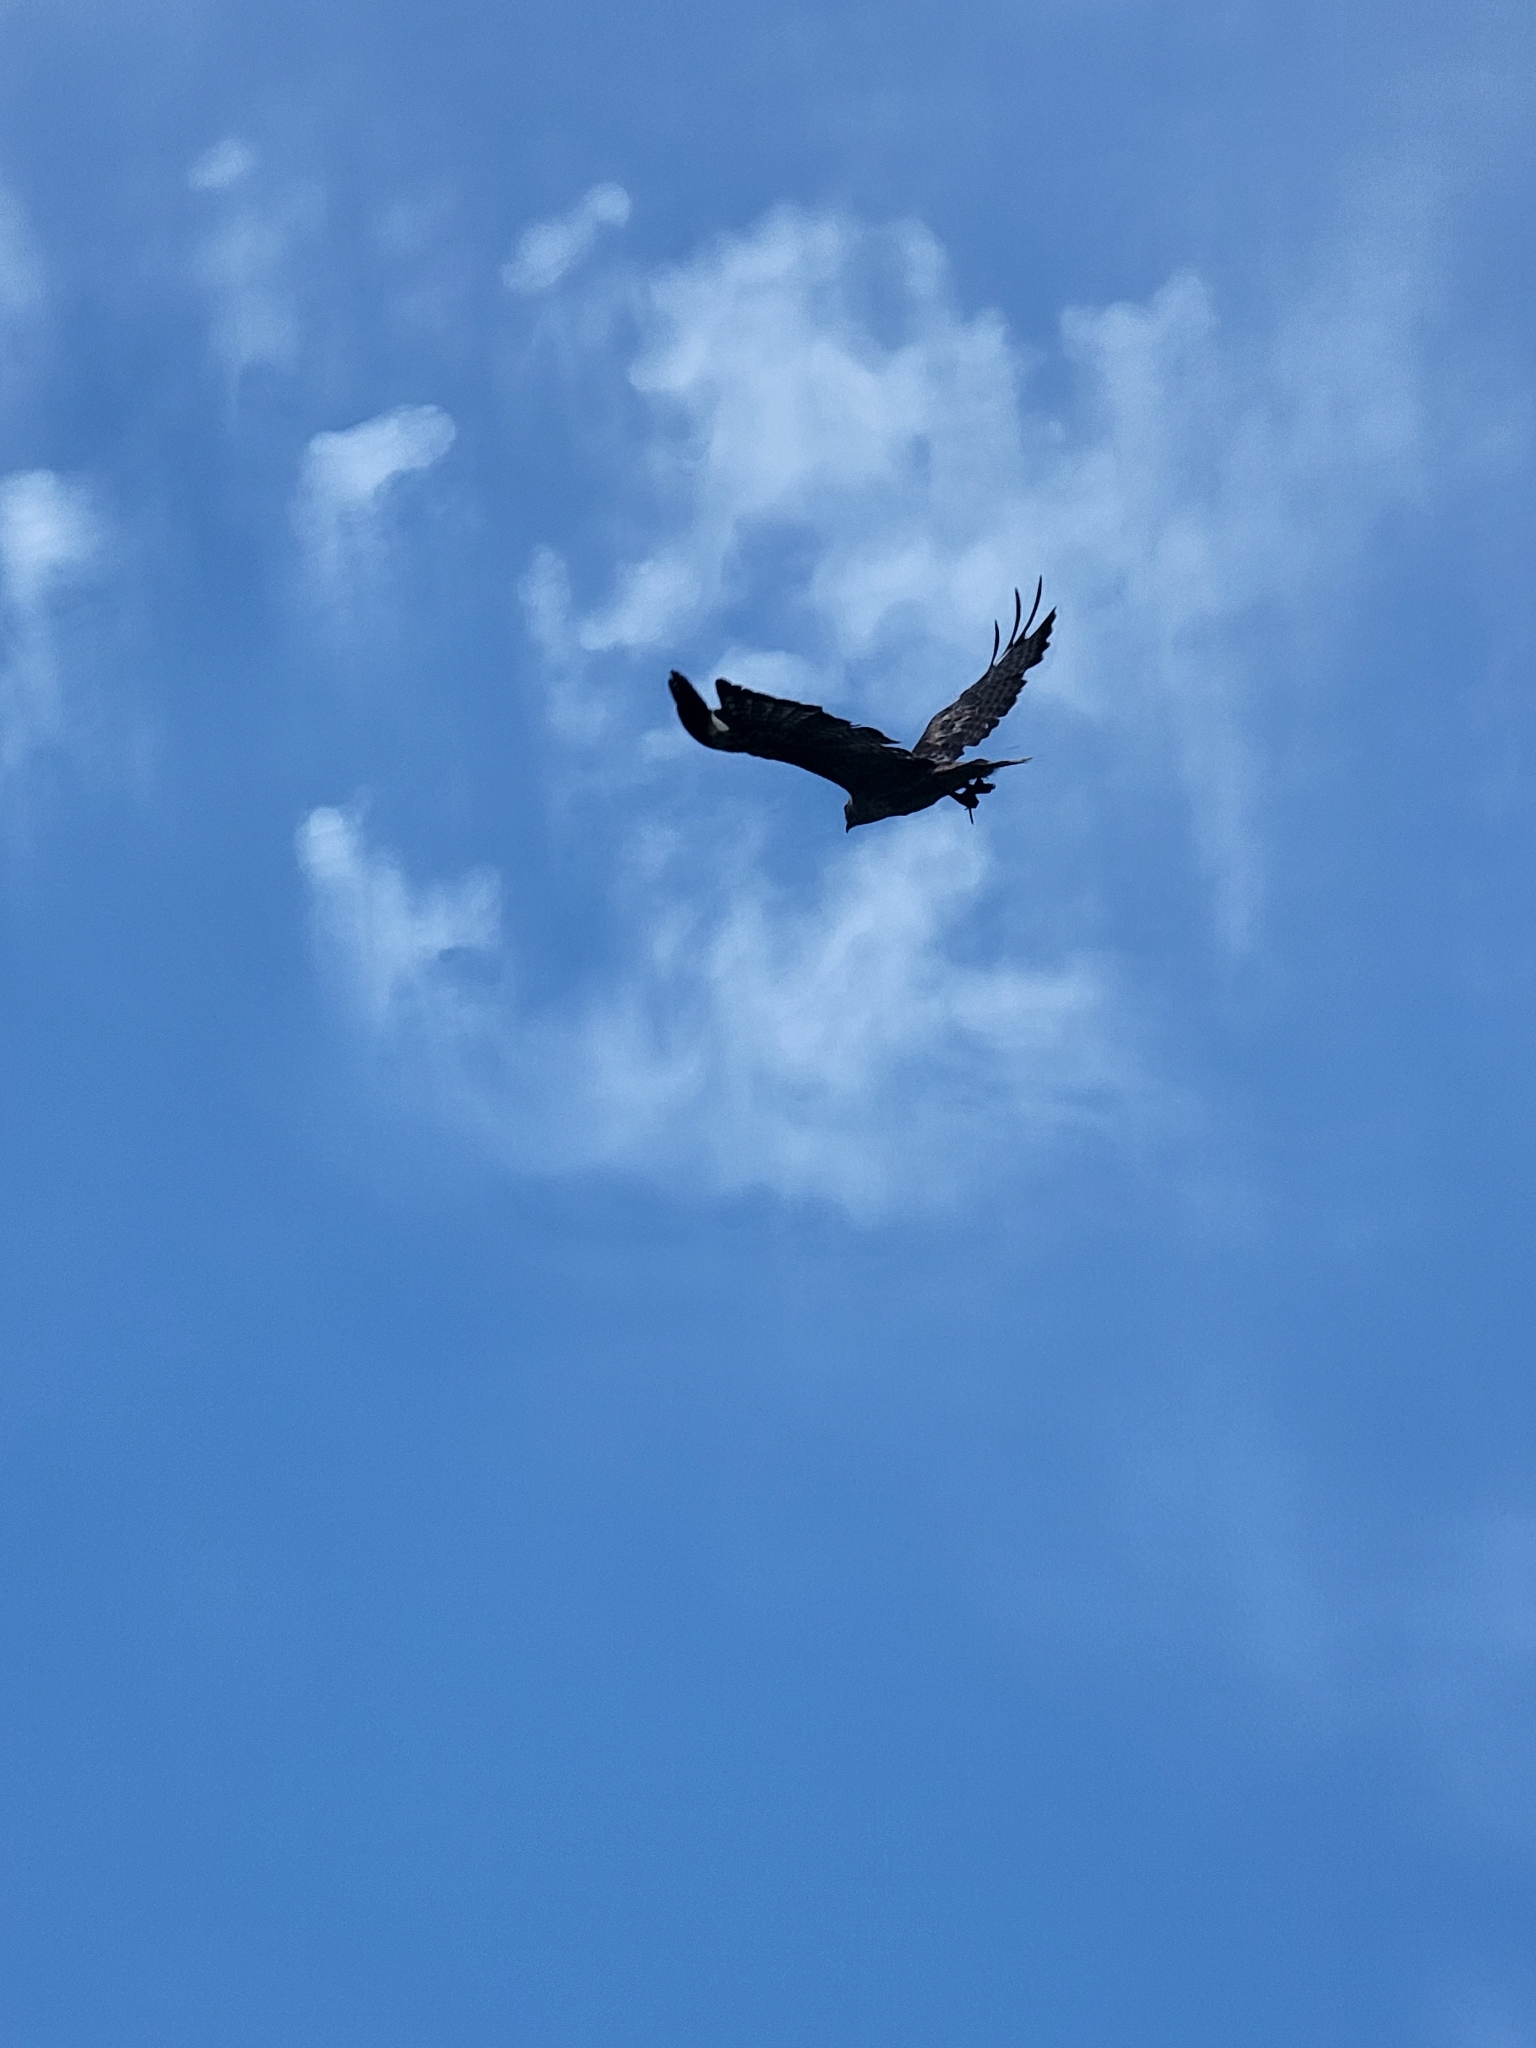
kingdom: Animalia
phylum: Chordata
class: Aves
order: Accipitriformes
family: Accipitridae
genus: Buteo
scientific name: Buteo jamaicensis
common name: Red-tailed hawk
